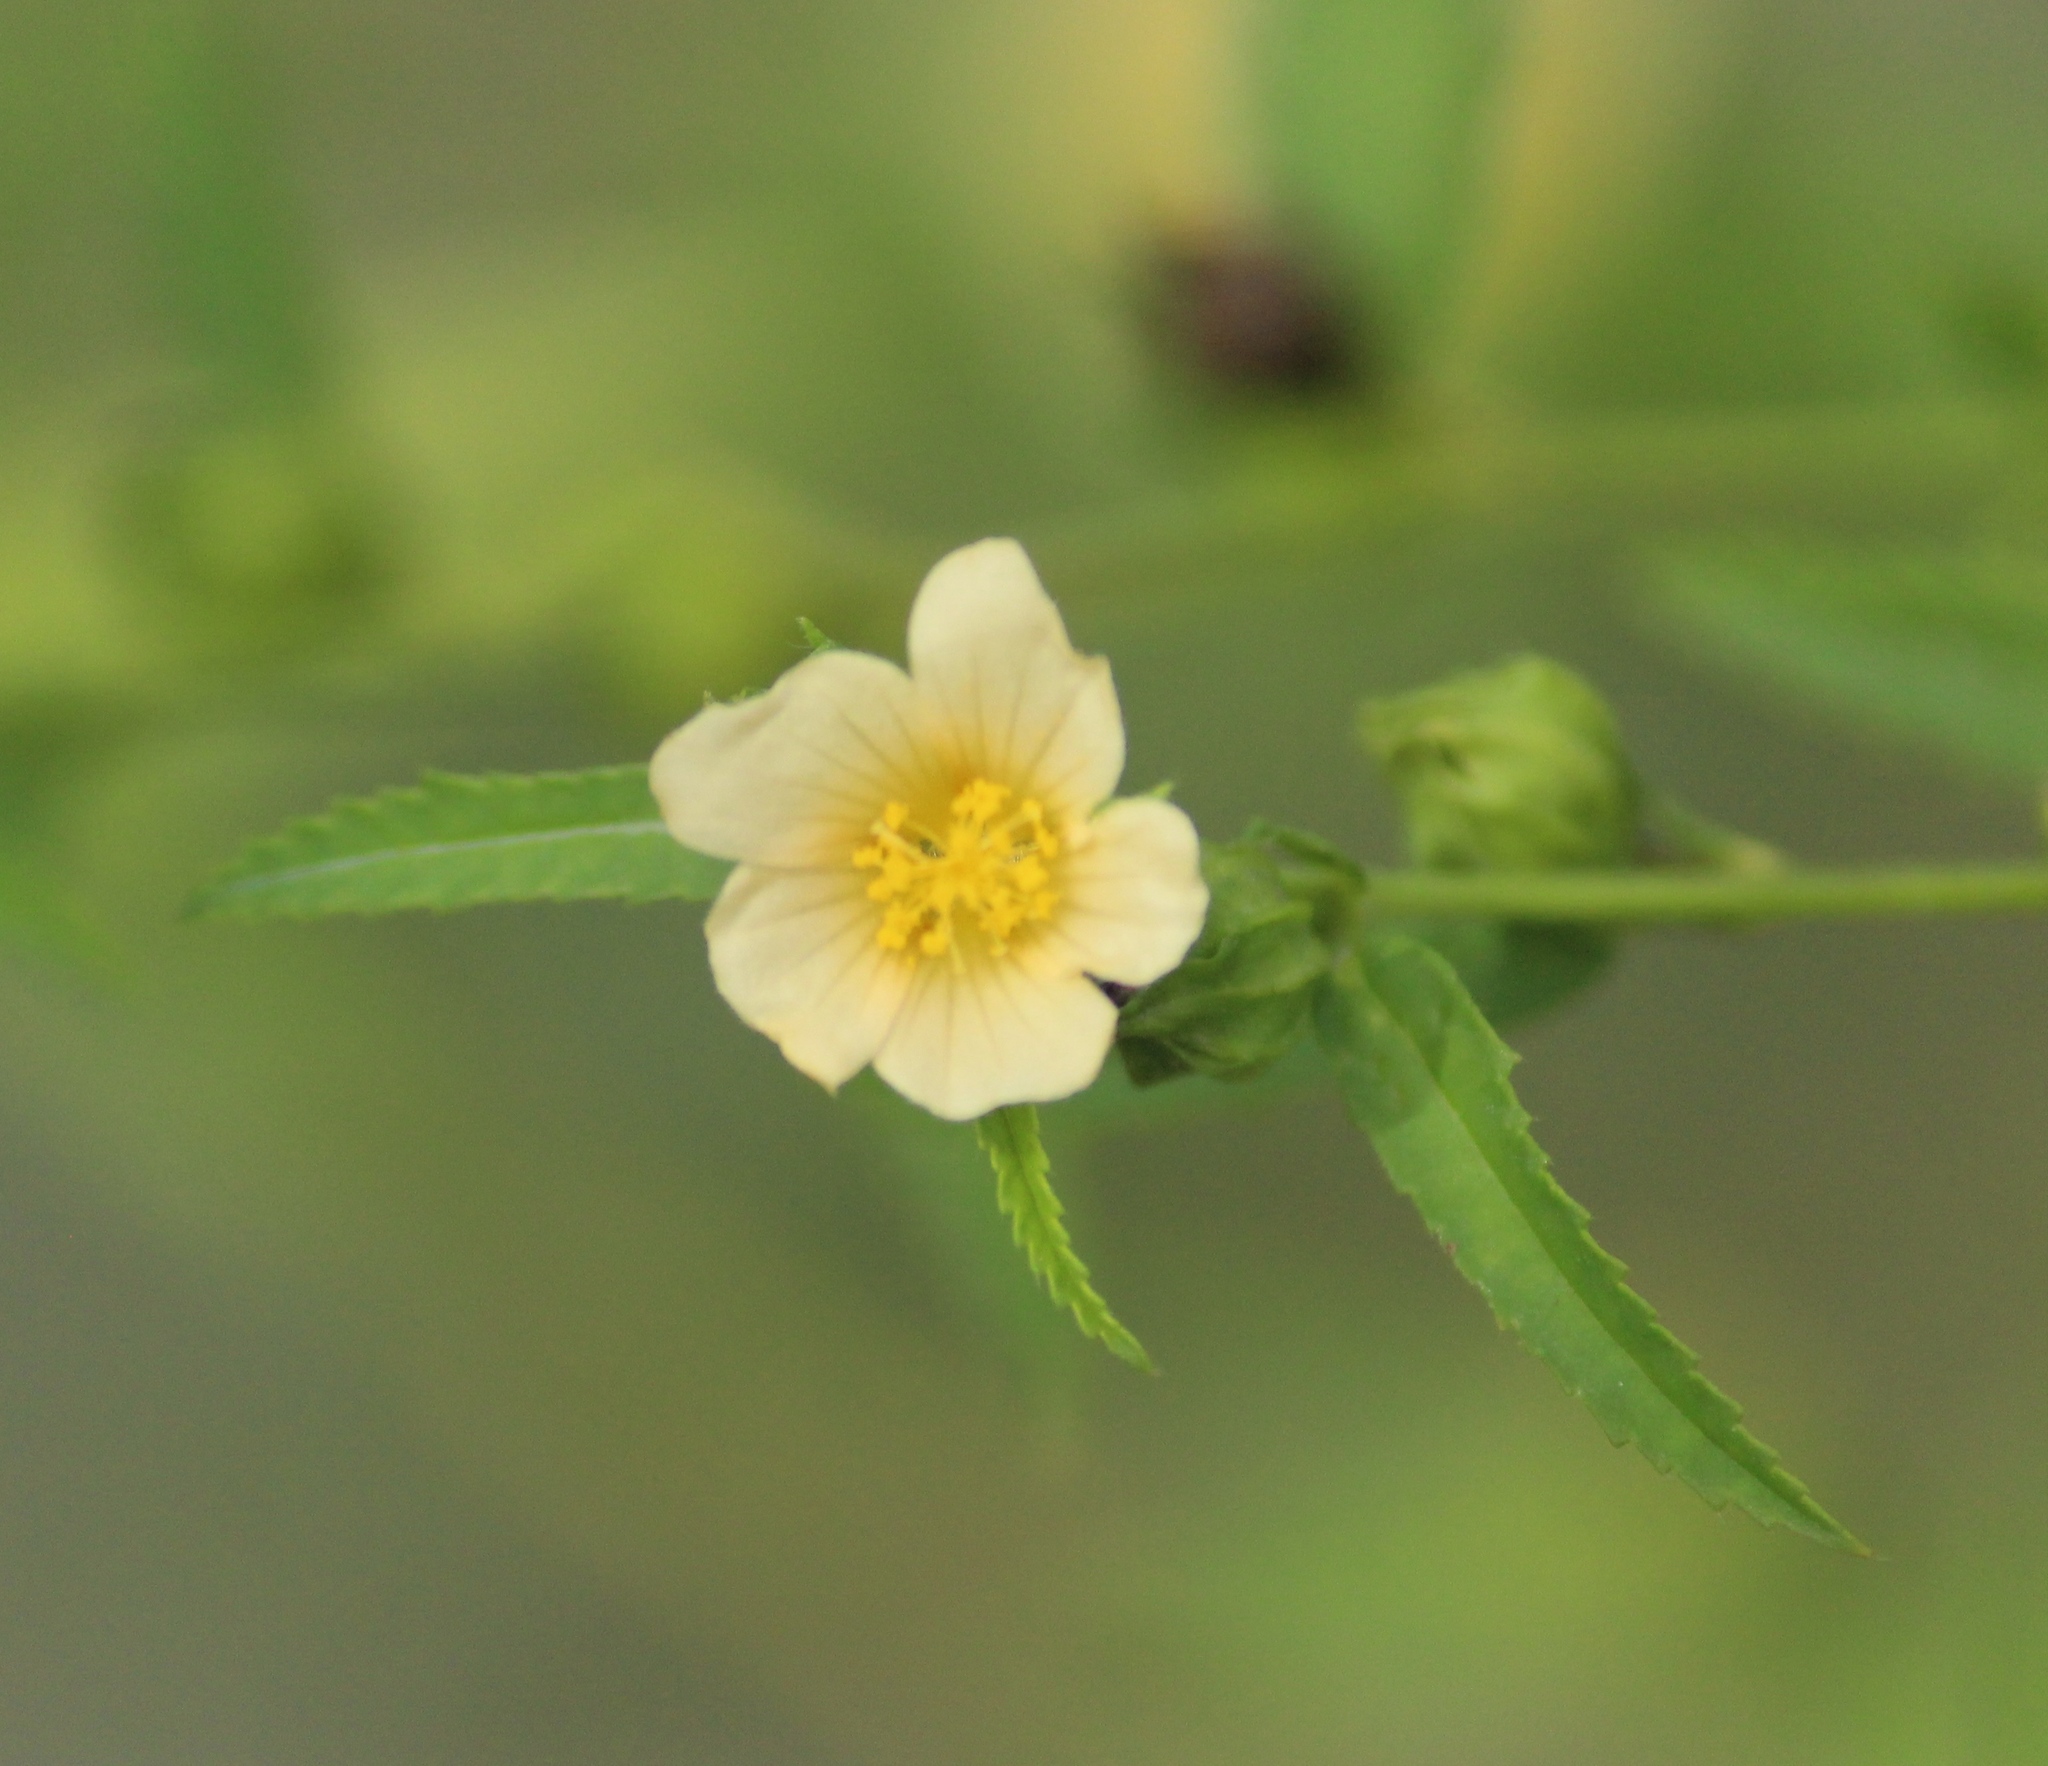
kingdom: Plantae
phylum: Tracheophyta
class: Magnoliopsida
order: Malvales
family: Malvaceae
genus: Sida
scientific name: Sida acuta
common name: Common wireweed
